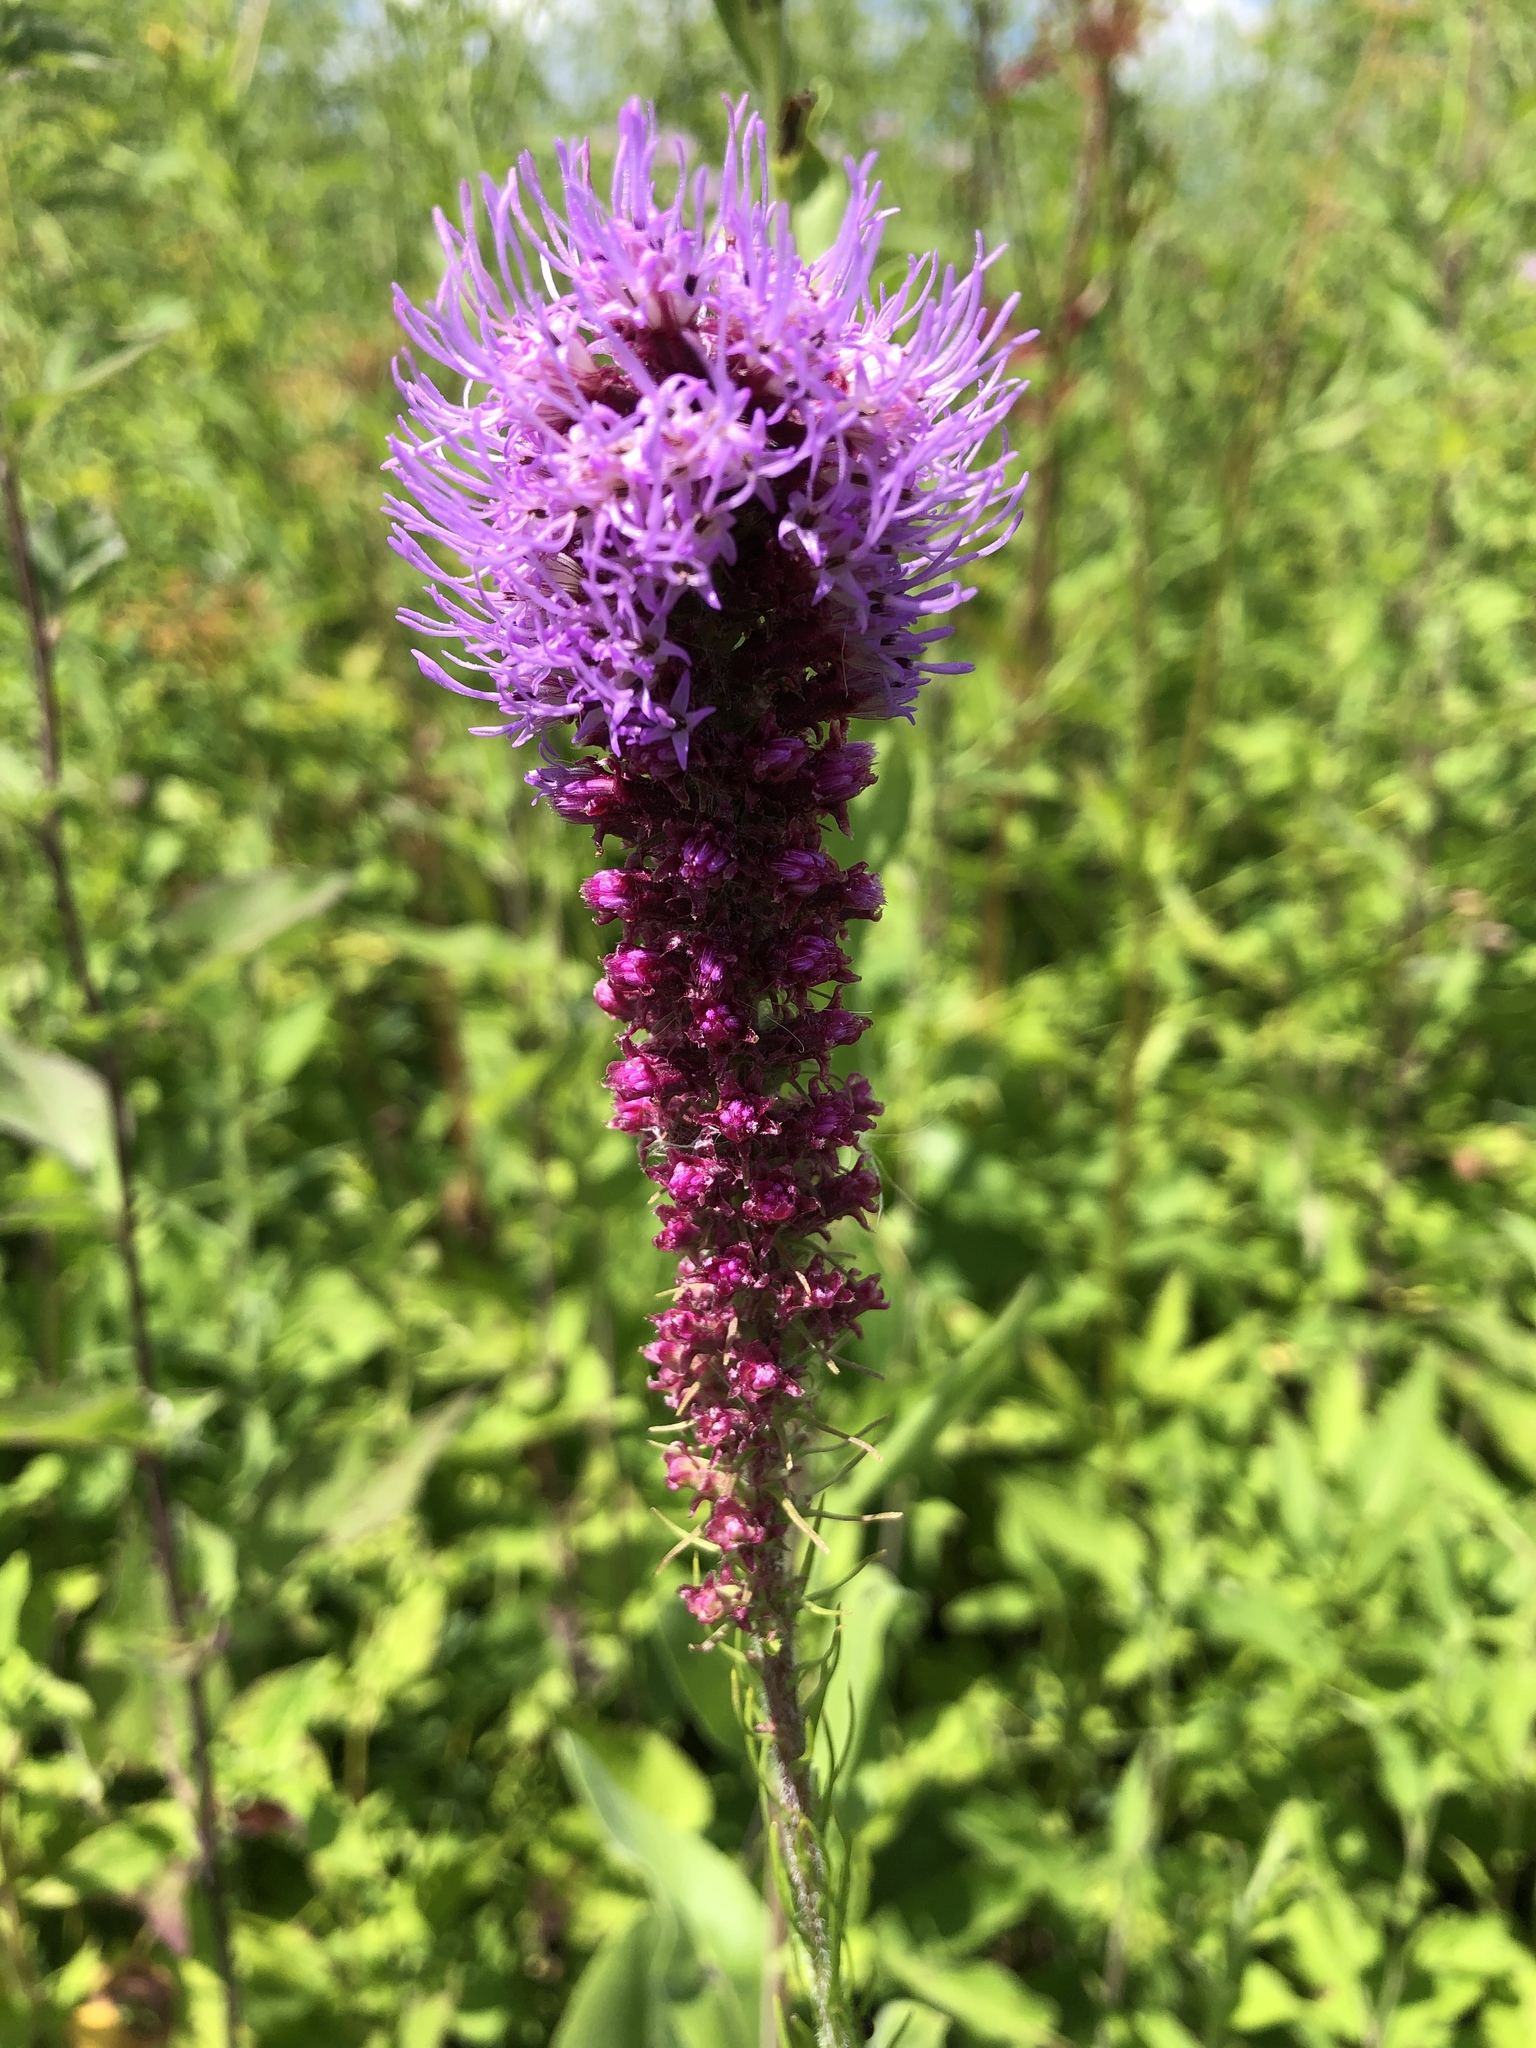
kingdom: Plantae
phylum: Tracheophyta
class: Magnoliopsida
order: Asterales
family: Asteraceae
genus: Liatris
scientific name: Liatris pycnostachya
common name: Cattail gayfeather
